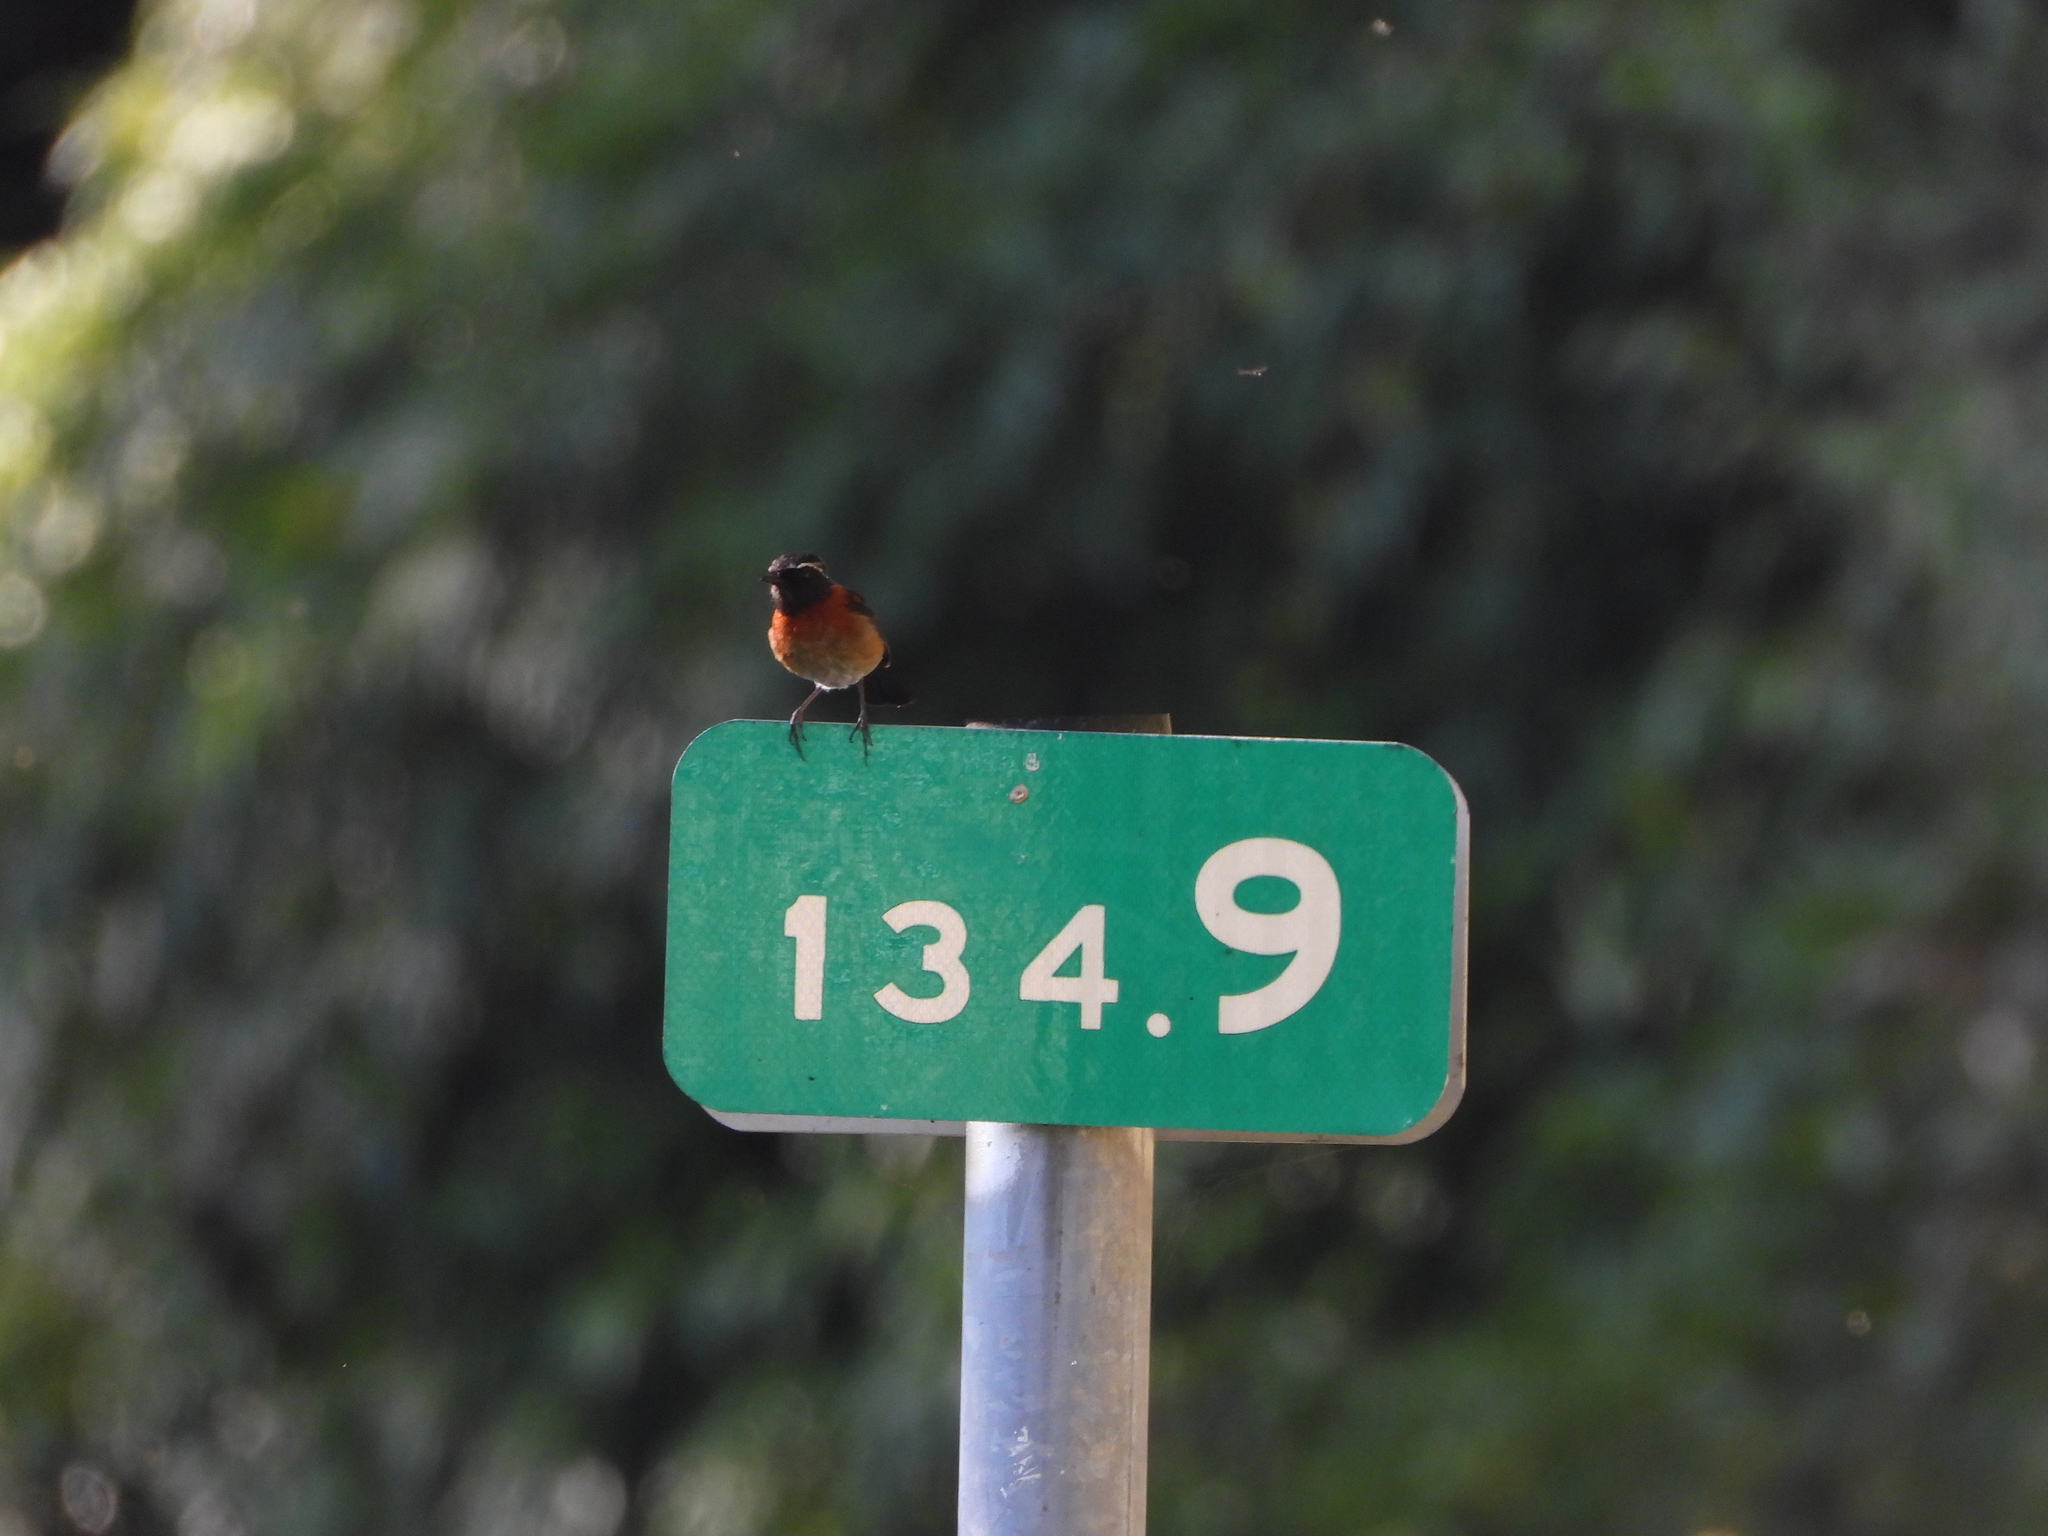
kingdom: Animalia
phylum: Chordata
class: Aves
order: Passeriformes
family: Muscicapidae
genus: Tarsiger
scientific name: Tarsiger johnstoniae
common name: Collared bush robin
